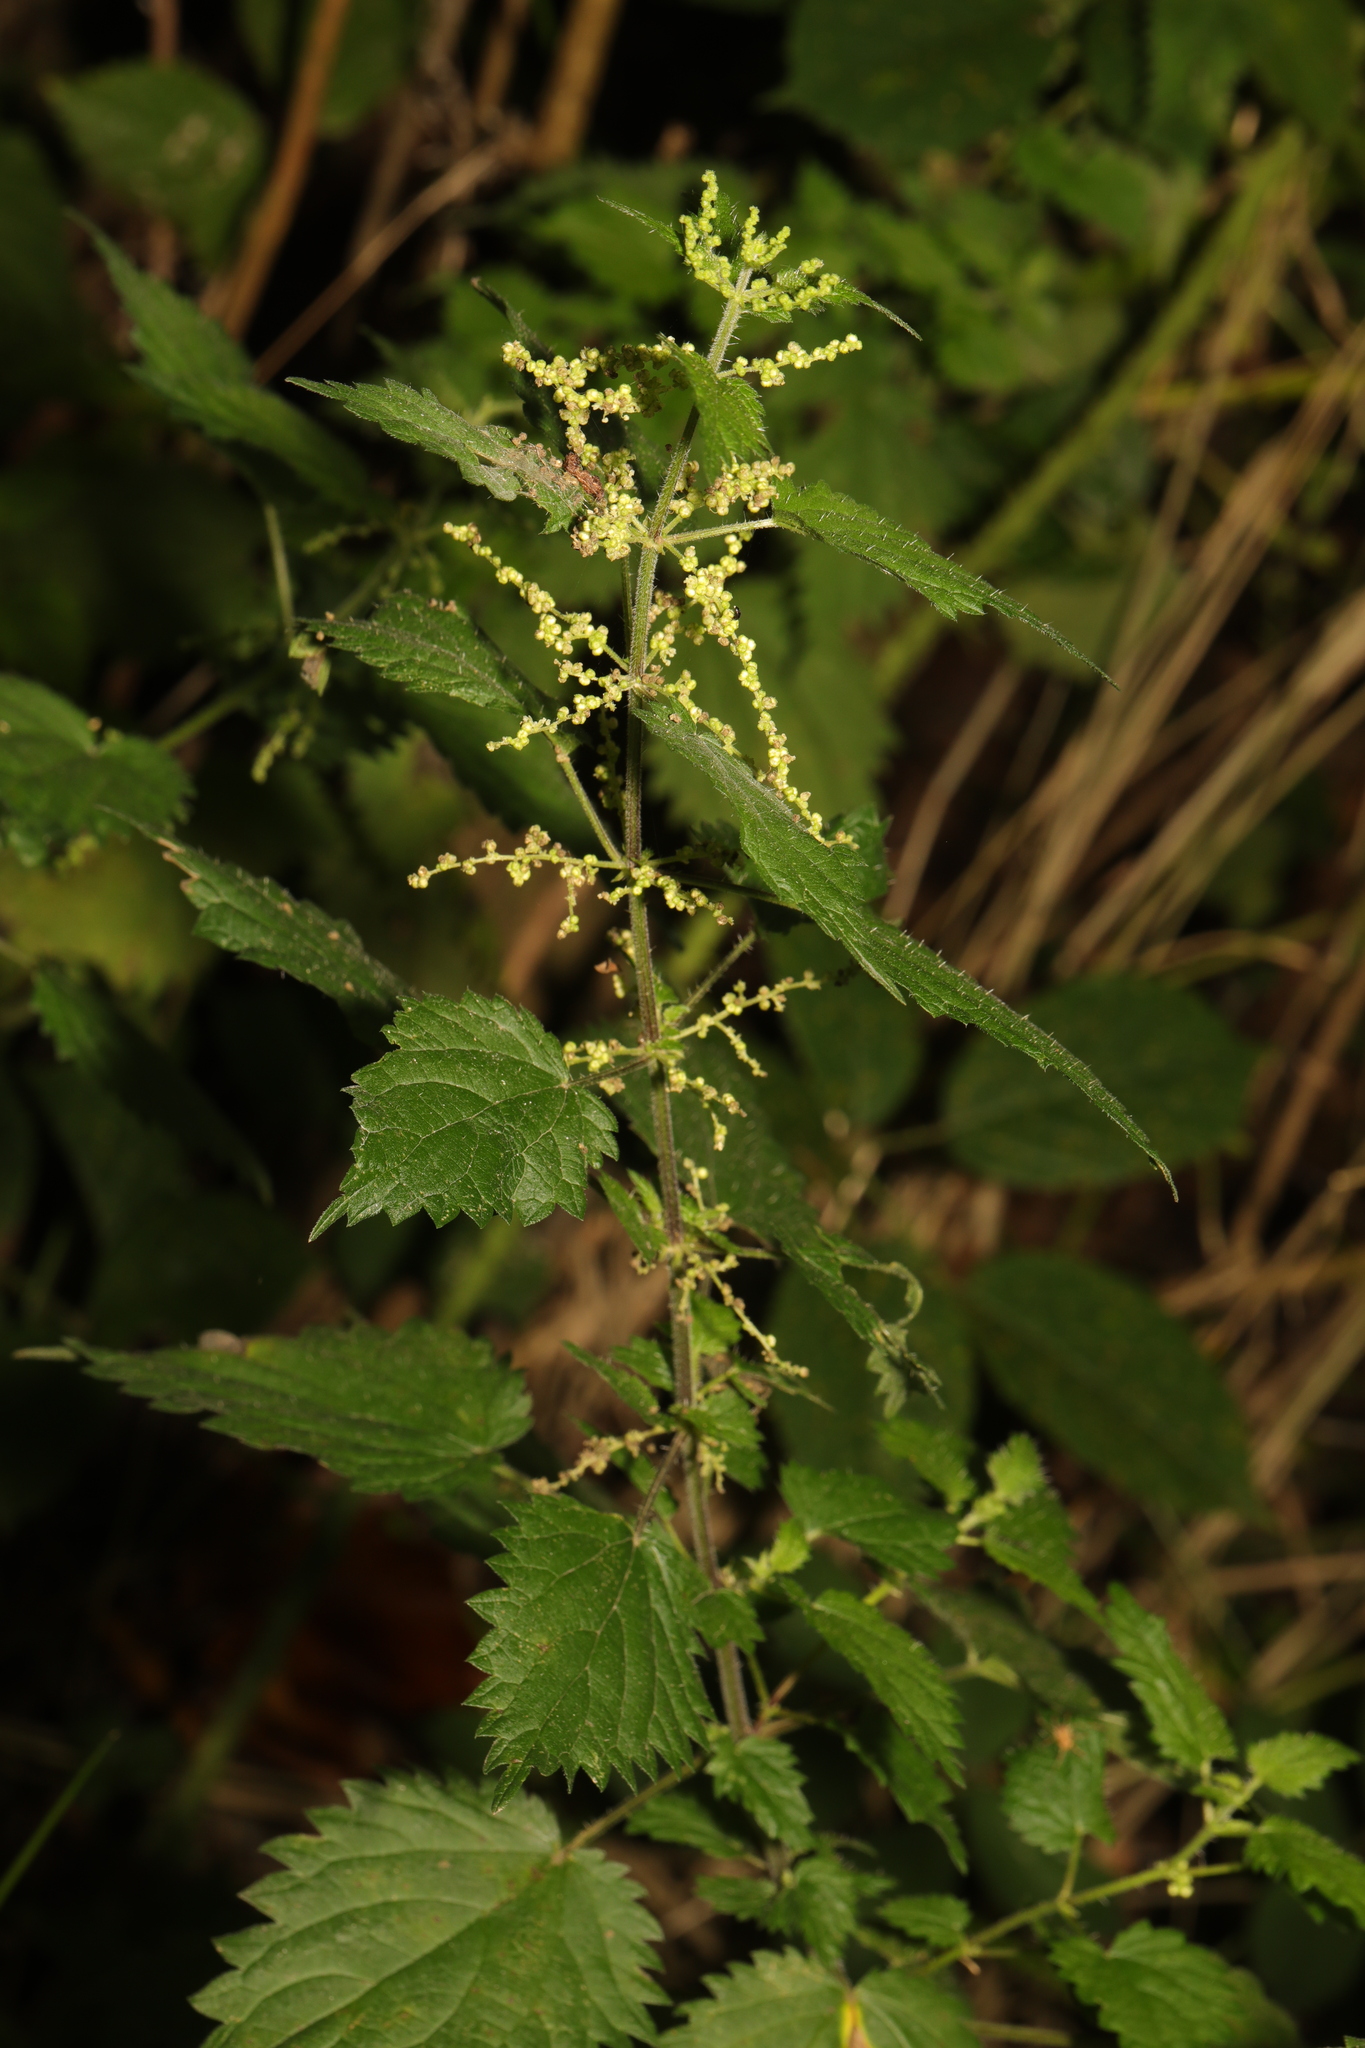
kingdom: Plantae
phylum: Tracheophyta
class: Magnoliopsida
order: Rosales
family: Urticaceae
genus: Urtica
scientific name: Urtica dioica
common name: Common nettle
